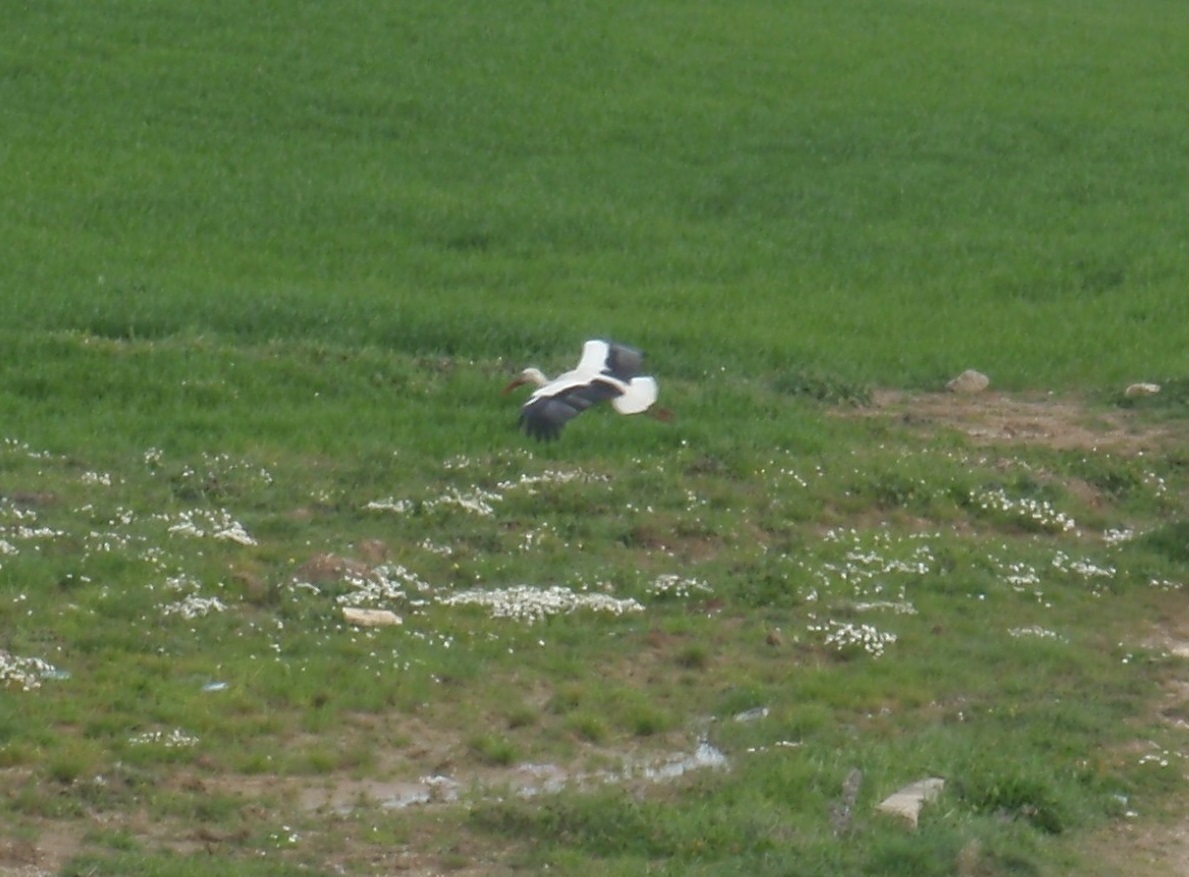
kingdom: Animalia
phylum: Chordata
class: Aves
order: Ciconiiformes
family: Ciconiidae
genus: Ciconia
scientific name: Ciconia ciconia
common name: White stork
